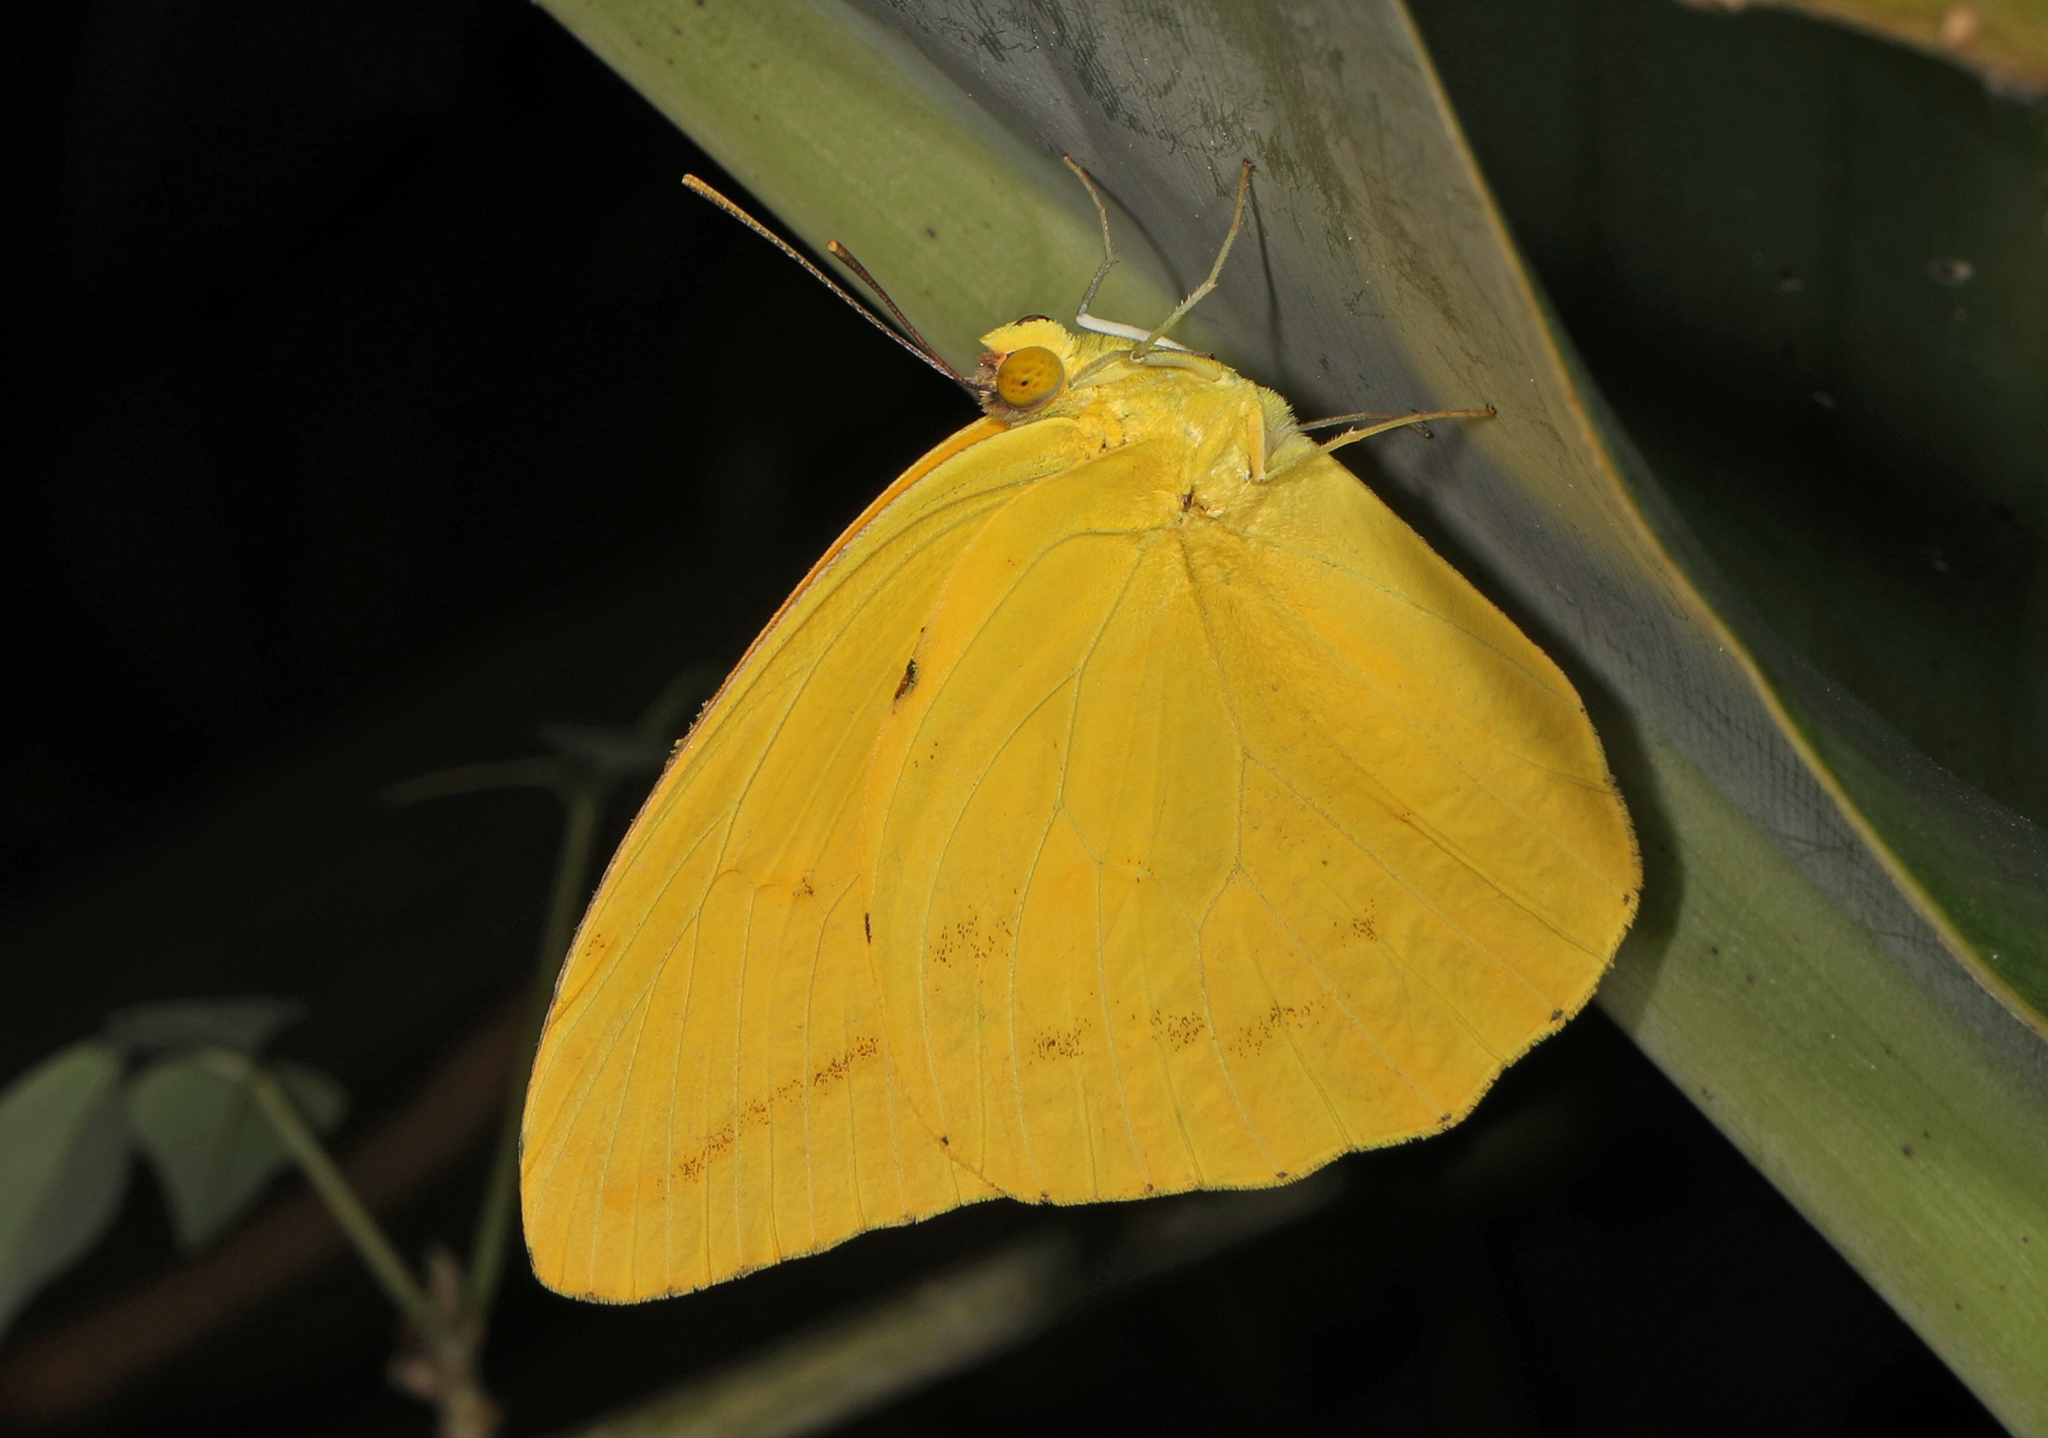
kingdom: Animalia
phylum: Arthropoda
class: Insecta
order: Lepidoptera
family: Pieridae
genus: Phoebis
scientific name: Phoebis agarithe
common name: Large orange sulphur
